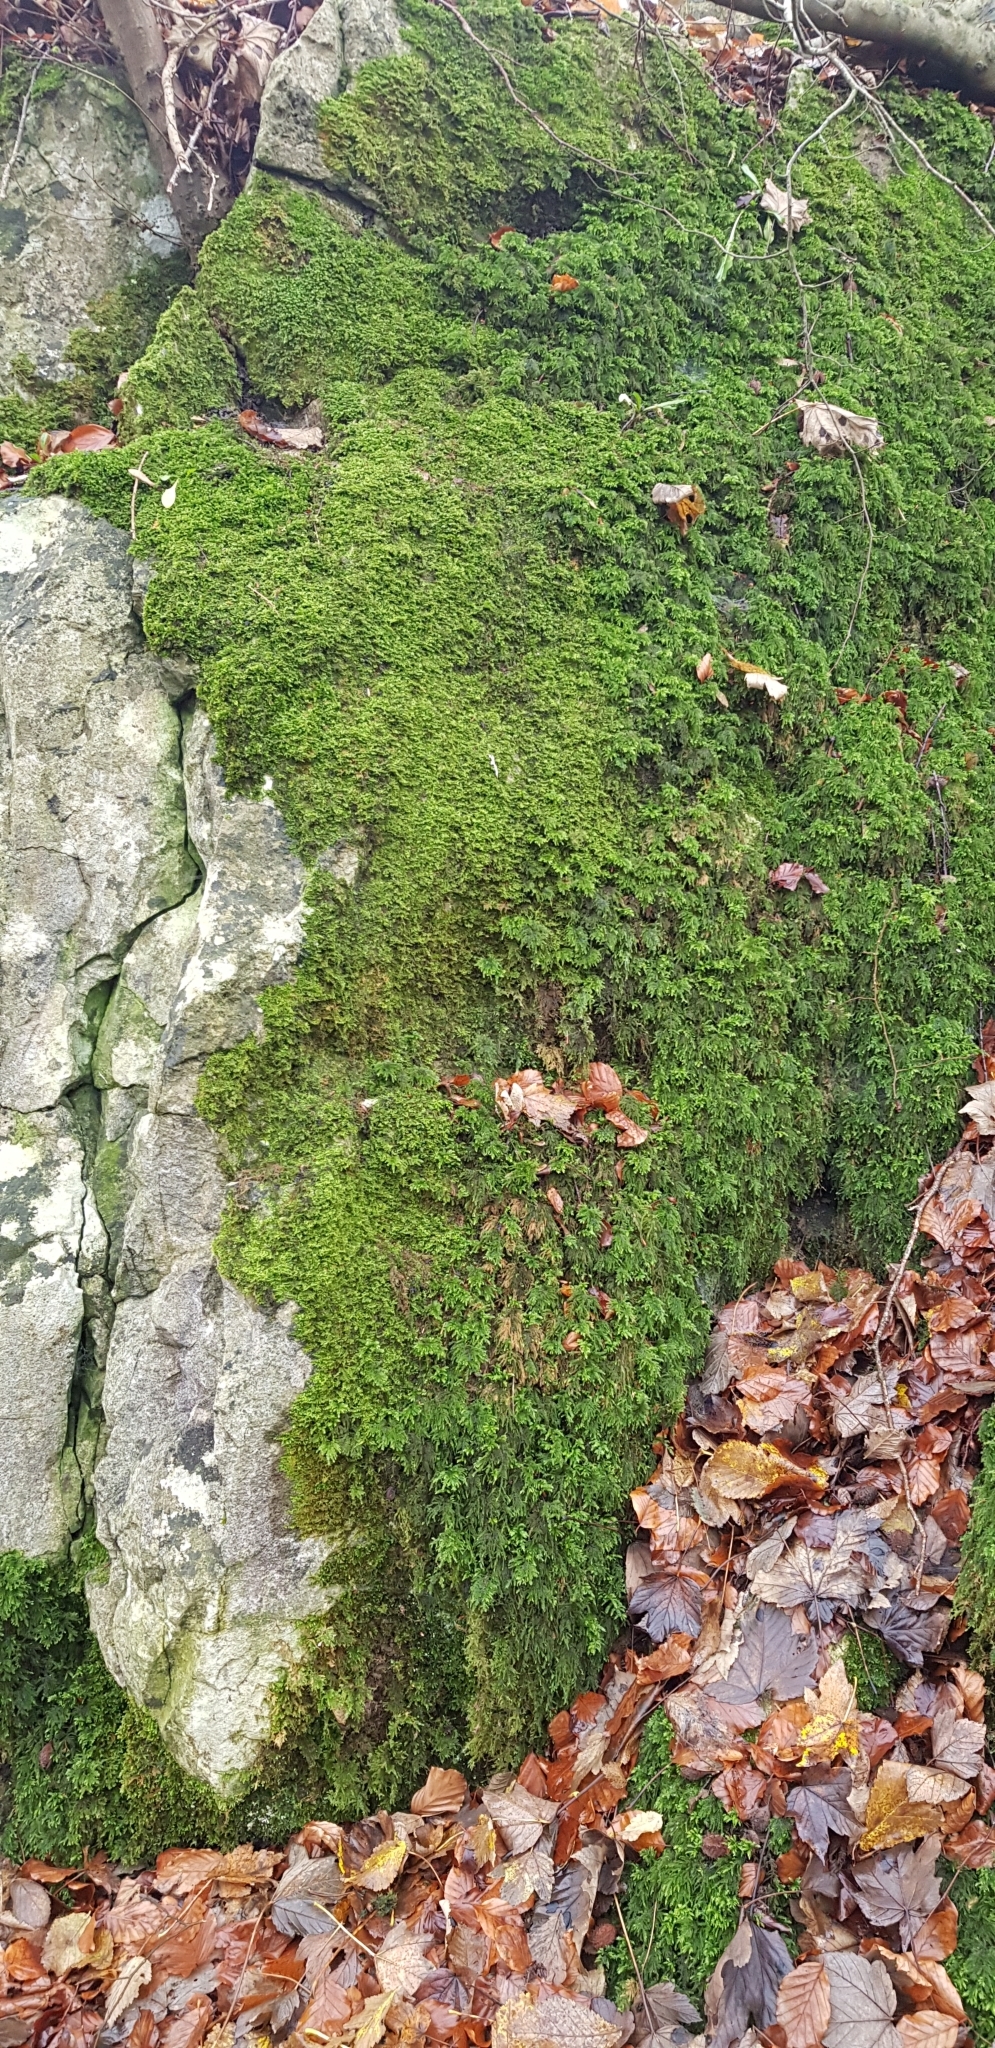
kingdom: Plantae
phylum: Bryophyta
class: Bryopsida
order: Hypnales
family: Myuriaceae
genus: Ctenidium
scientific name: Ctenidium molluscum
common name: Chalk comb-moss
